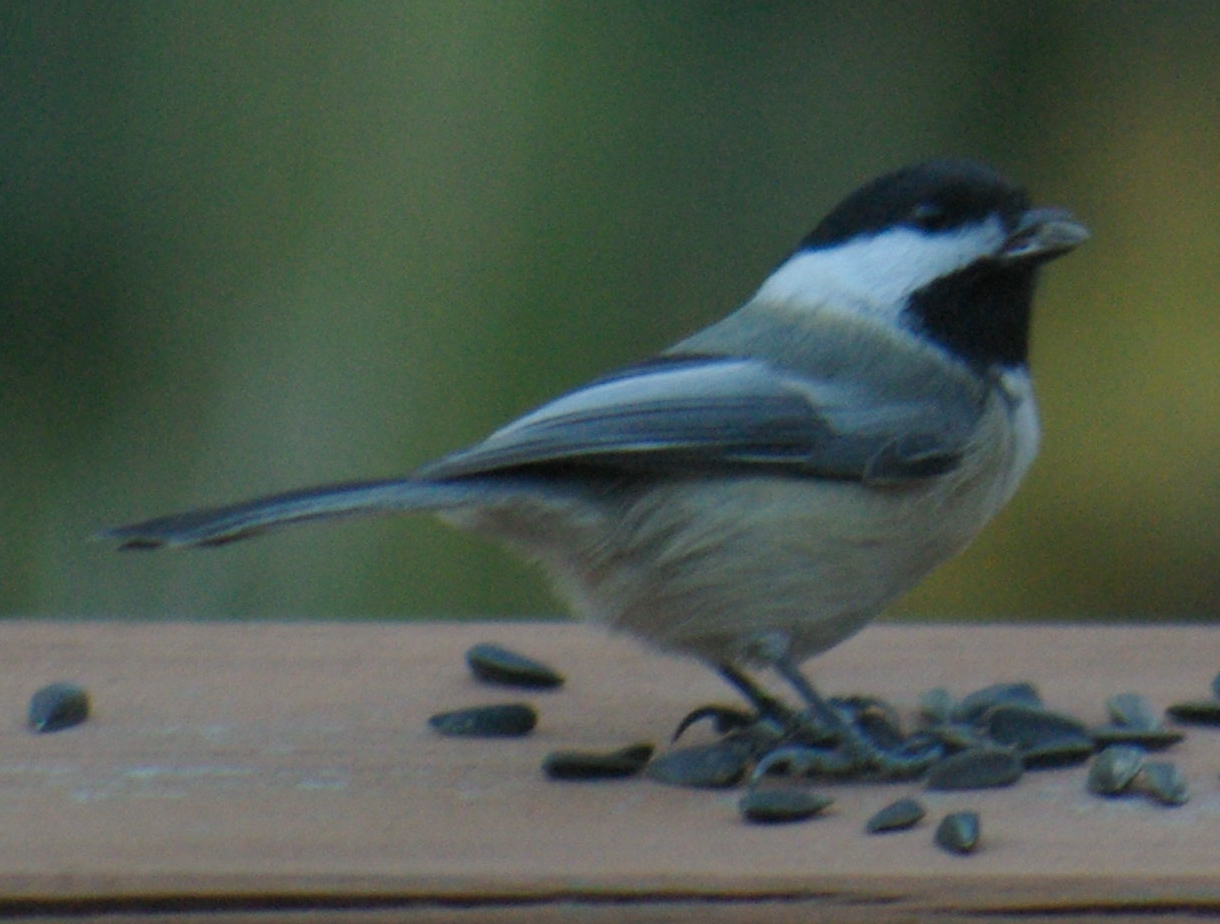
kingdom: Animalia
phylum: Chordata
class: Aves
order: Passeriformes
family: Paridae
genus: Poecile
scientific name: Poecile atricapillus
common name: Black-capped chickadee
